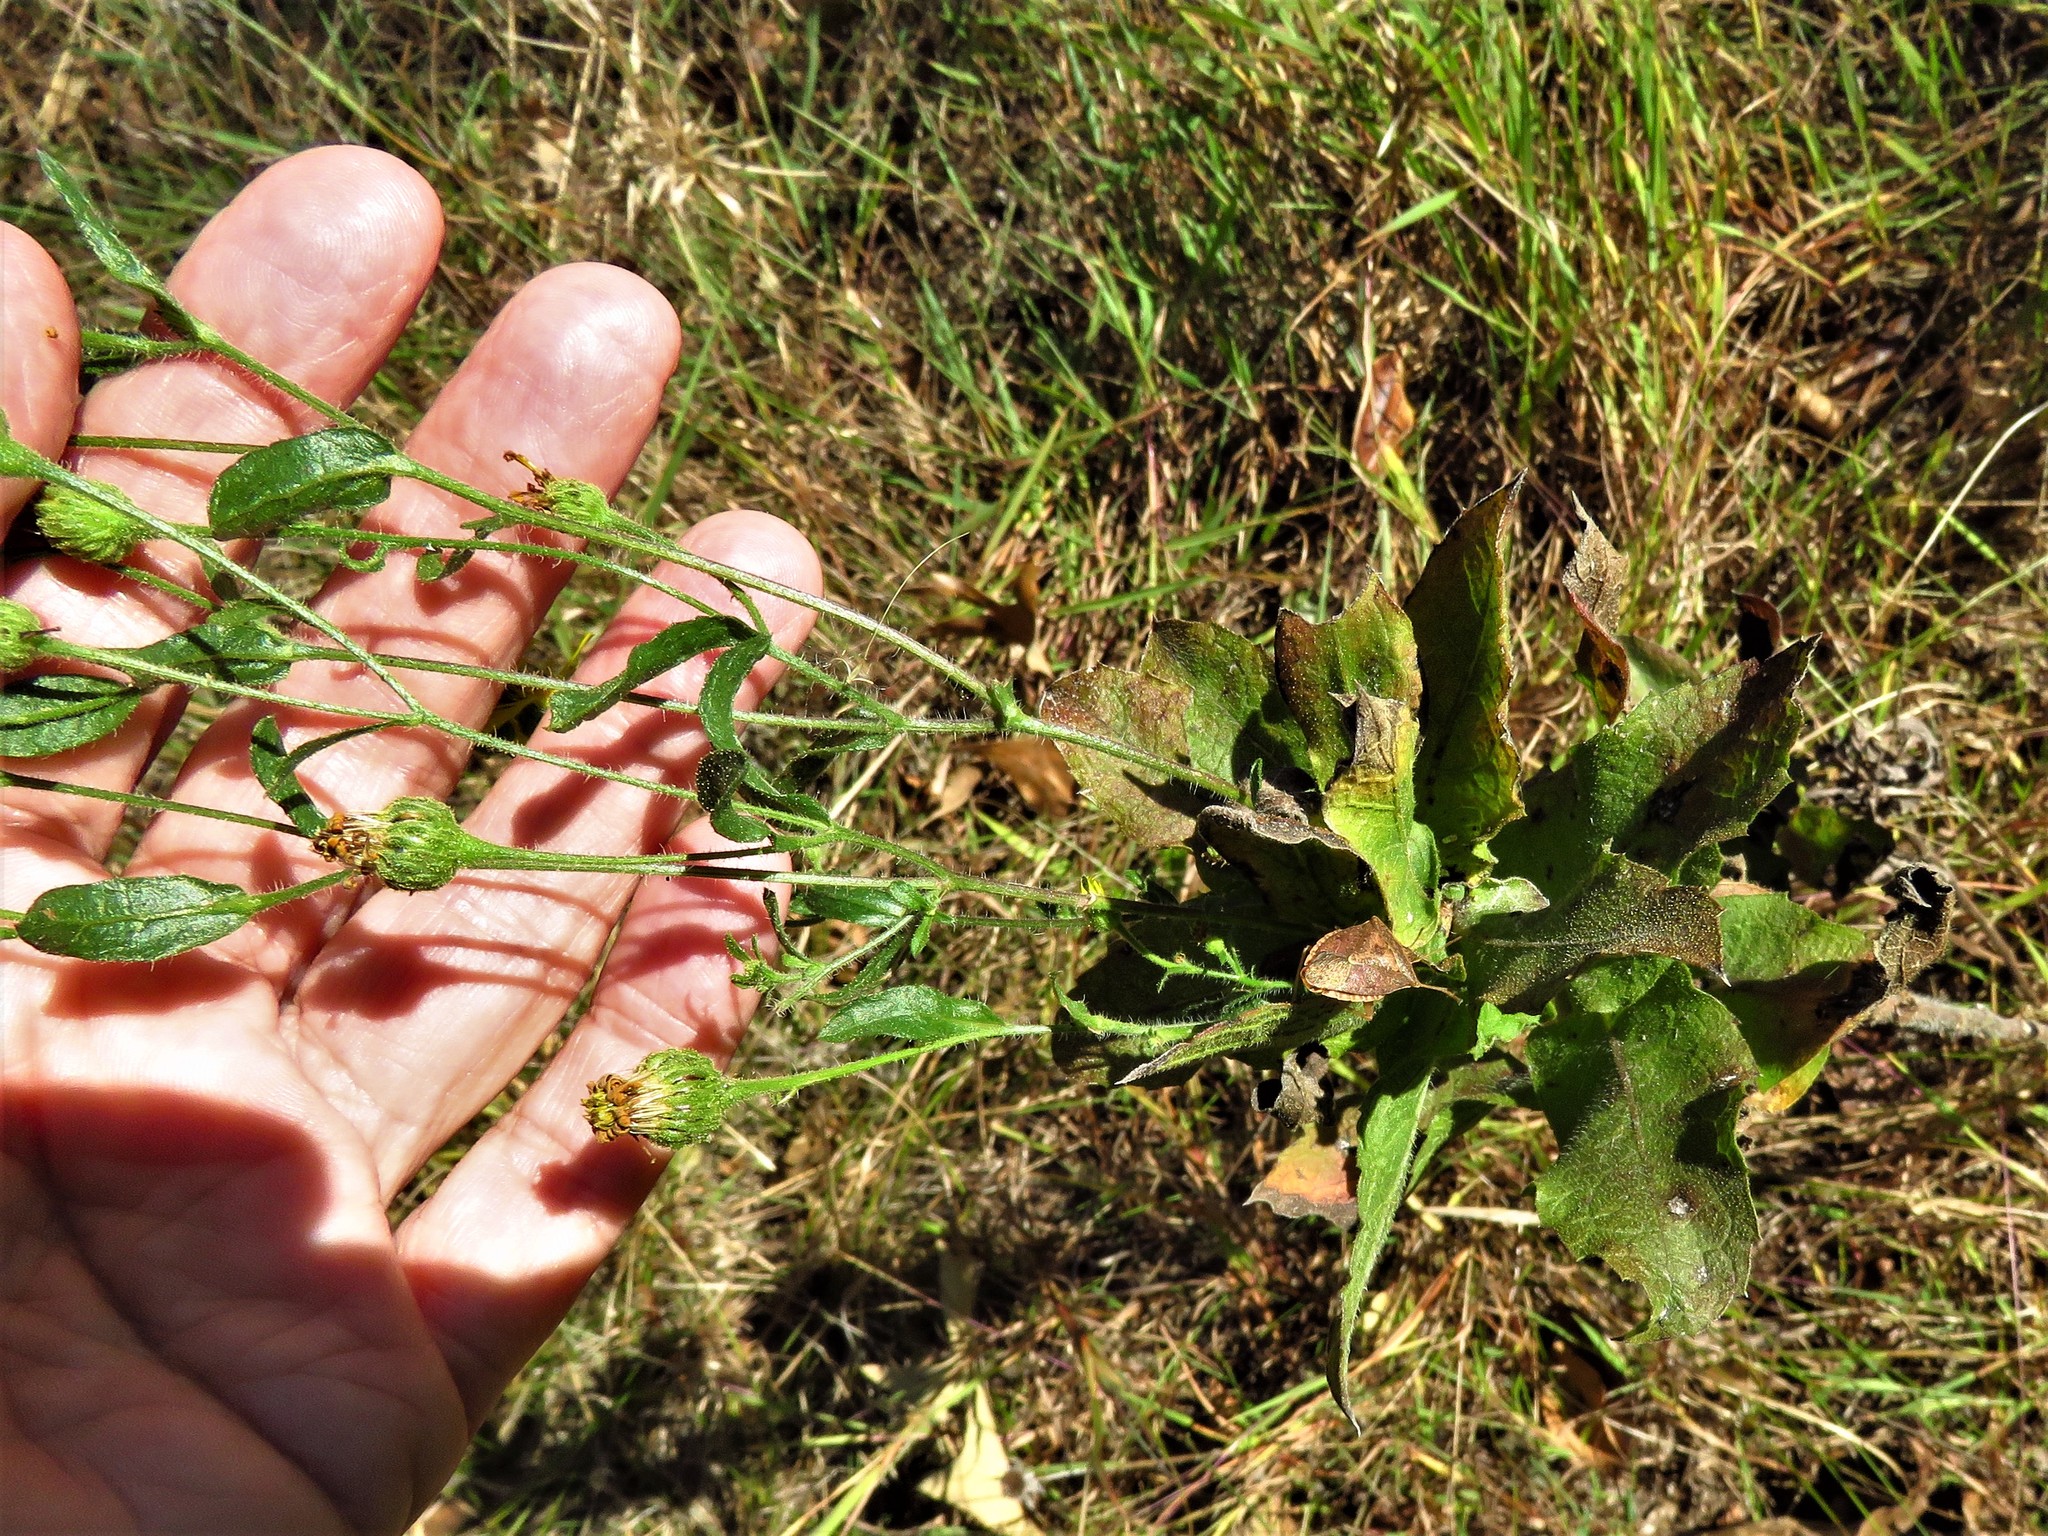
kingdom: Plantae
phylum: Tracheophyta
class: Magnoliopsida
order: Asterales
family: Asteraceae
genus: Heterotheca
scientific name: Heterotheca subaxillaris
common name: Camphorweed
